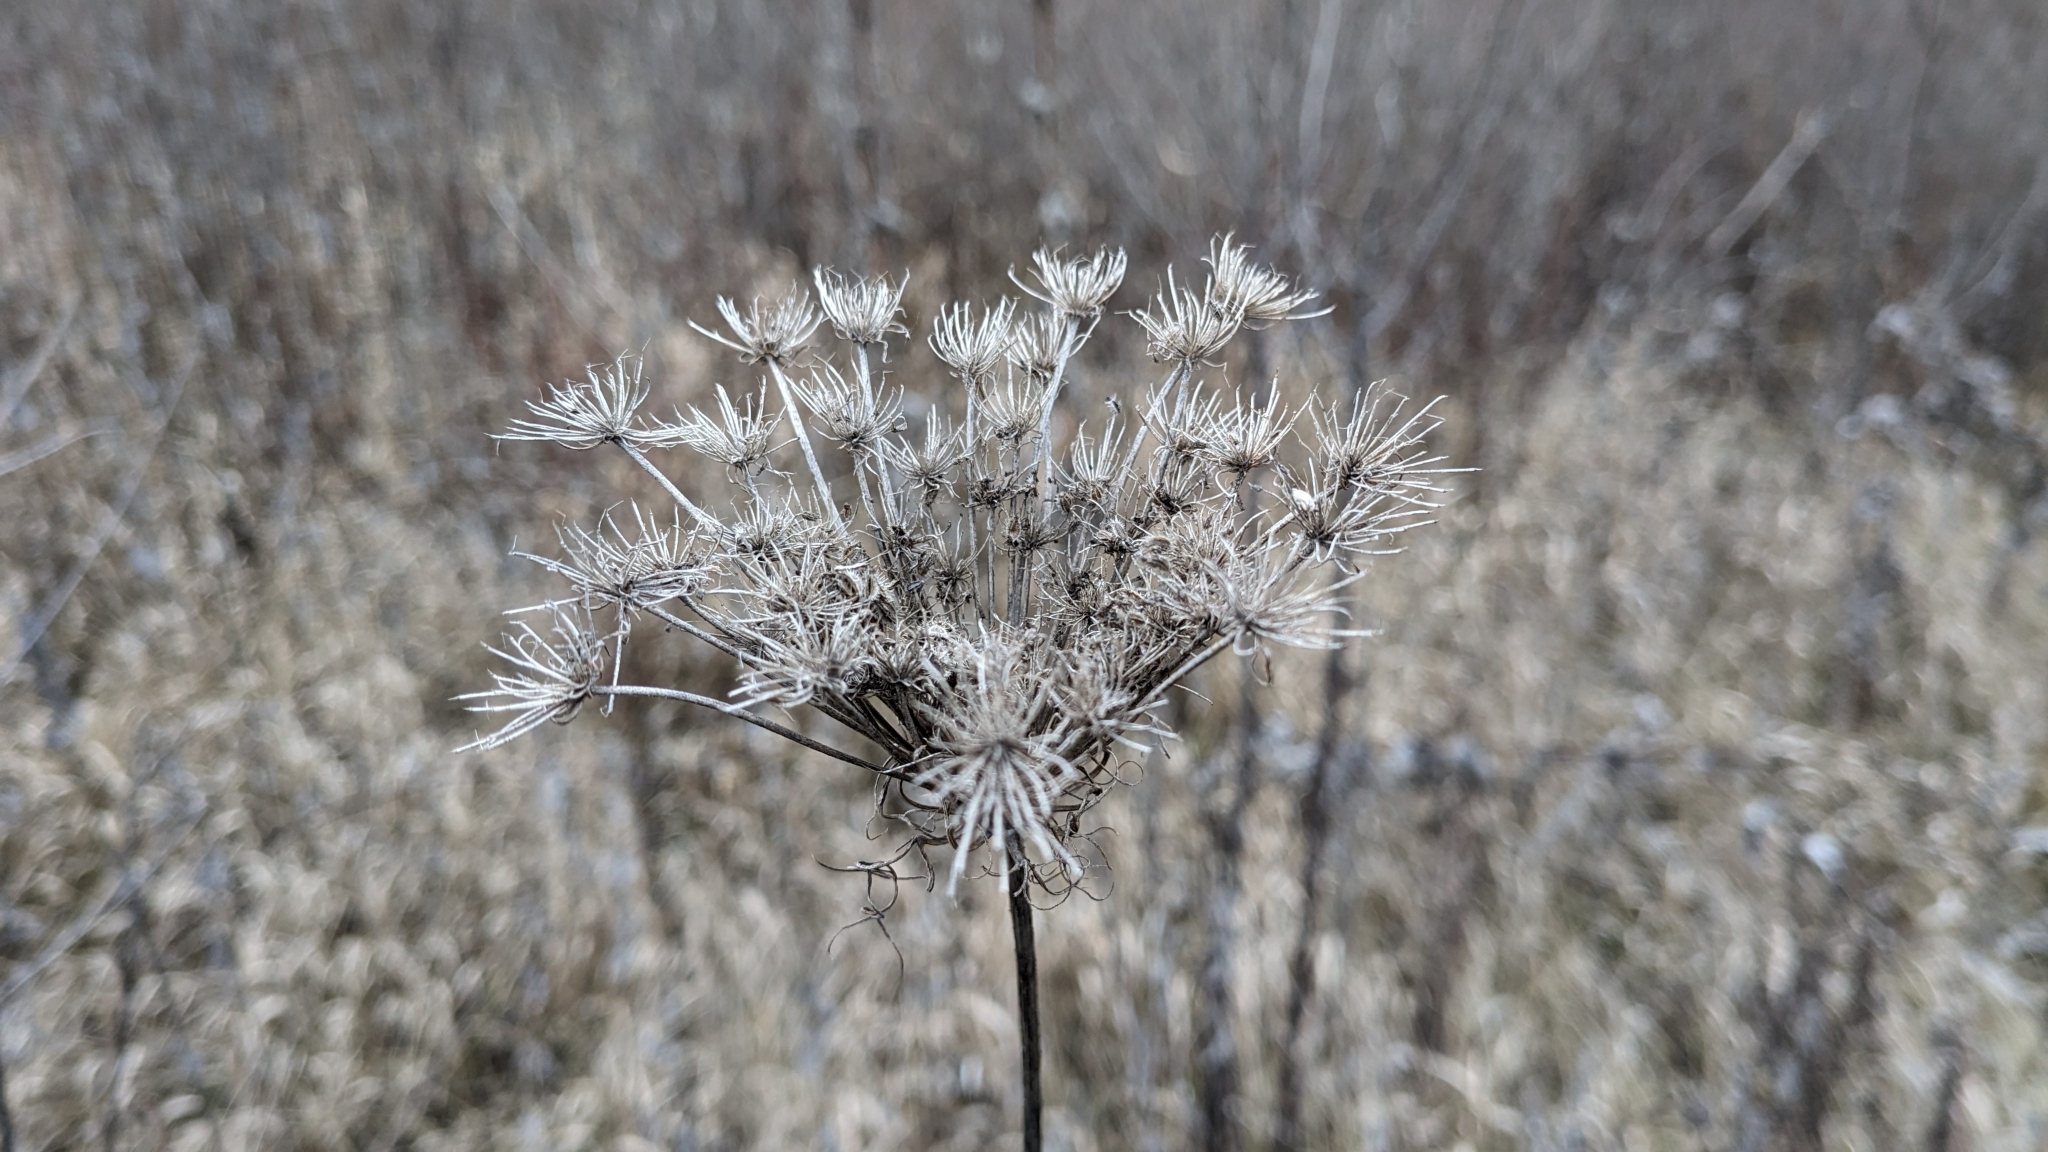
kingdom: Plantae
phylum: Tracheophyta
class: Magnoliopsida
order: Apiales
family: Apiaceae
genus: Daucus
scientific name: Daucus carota
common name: Wild carrot
